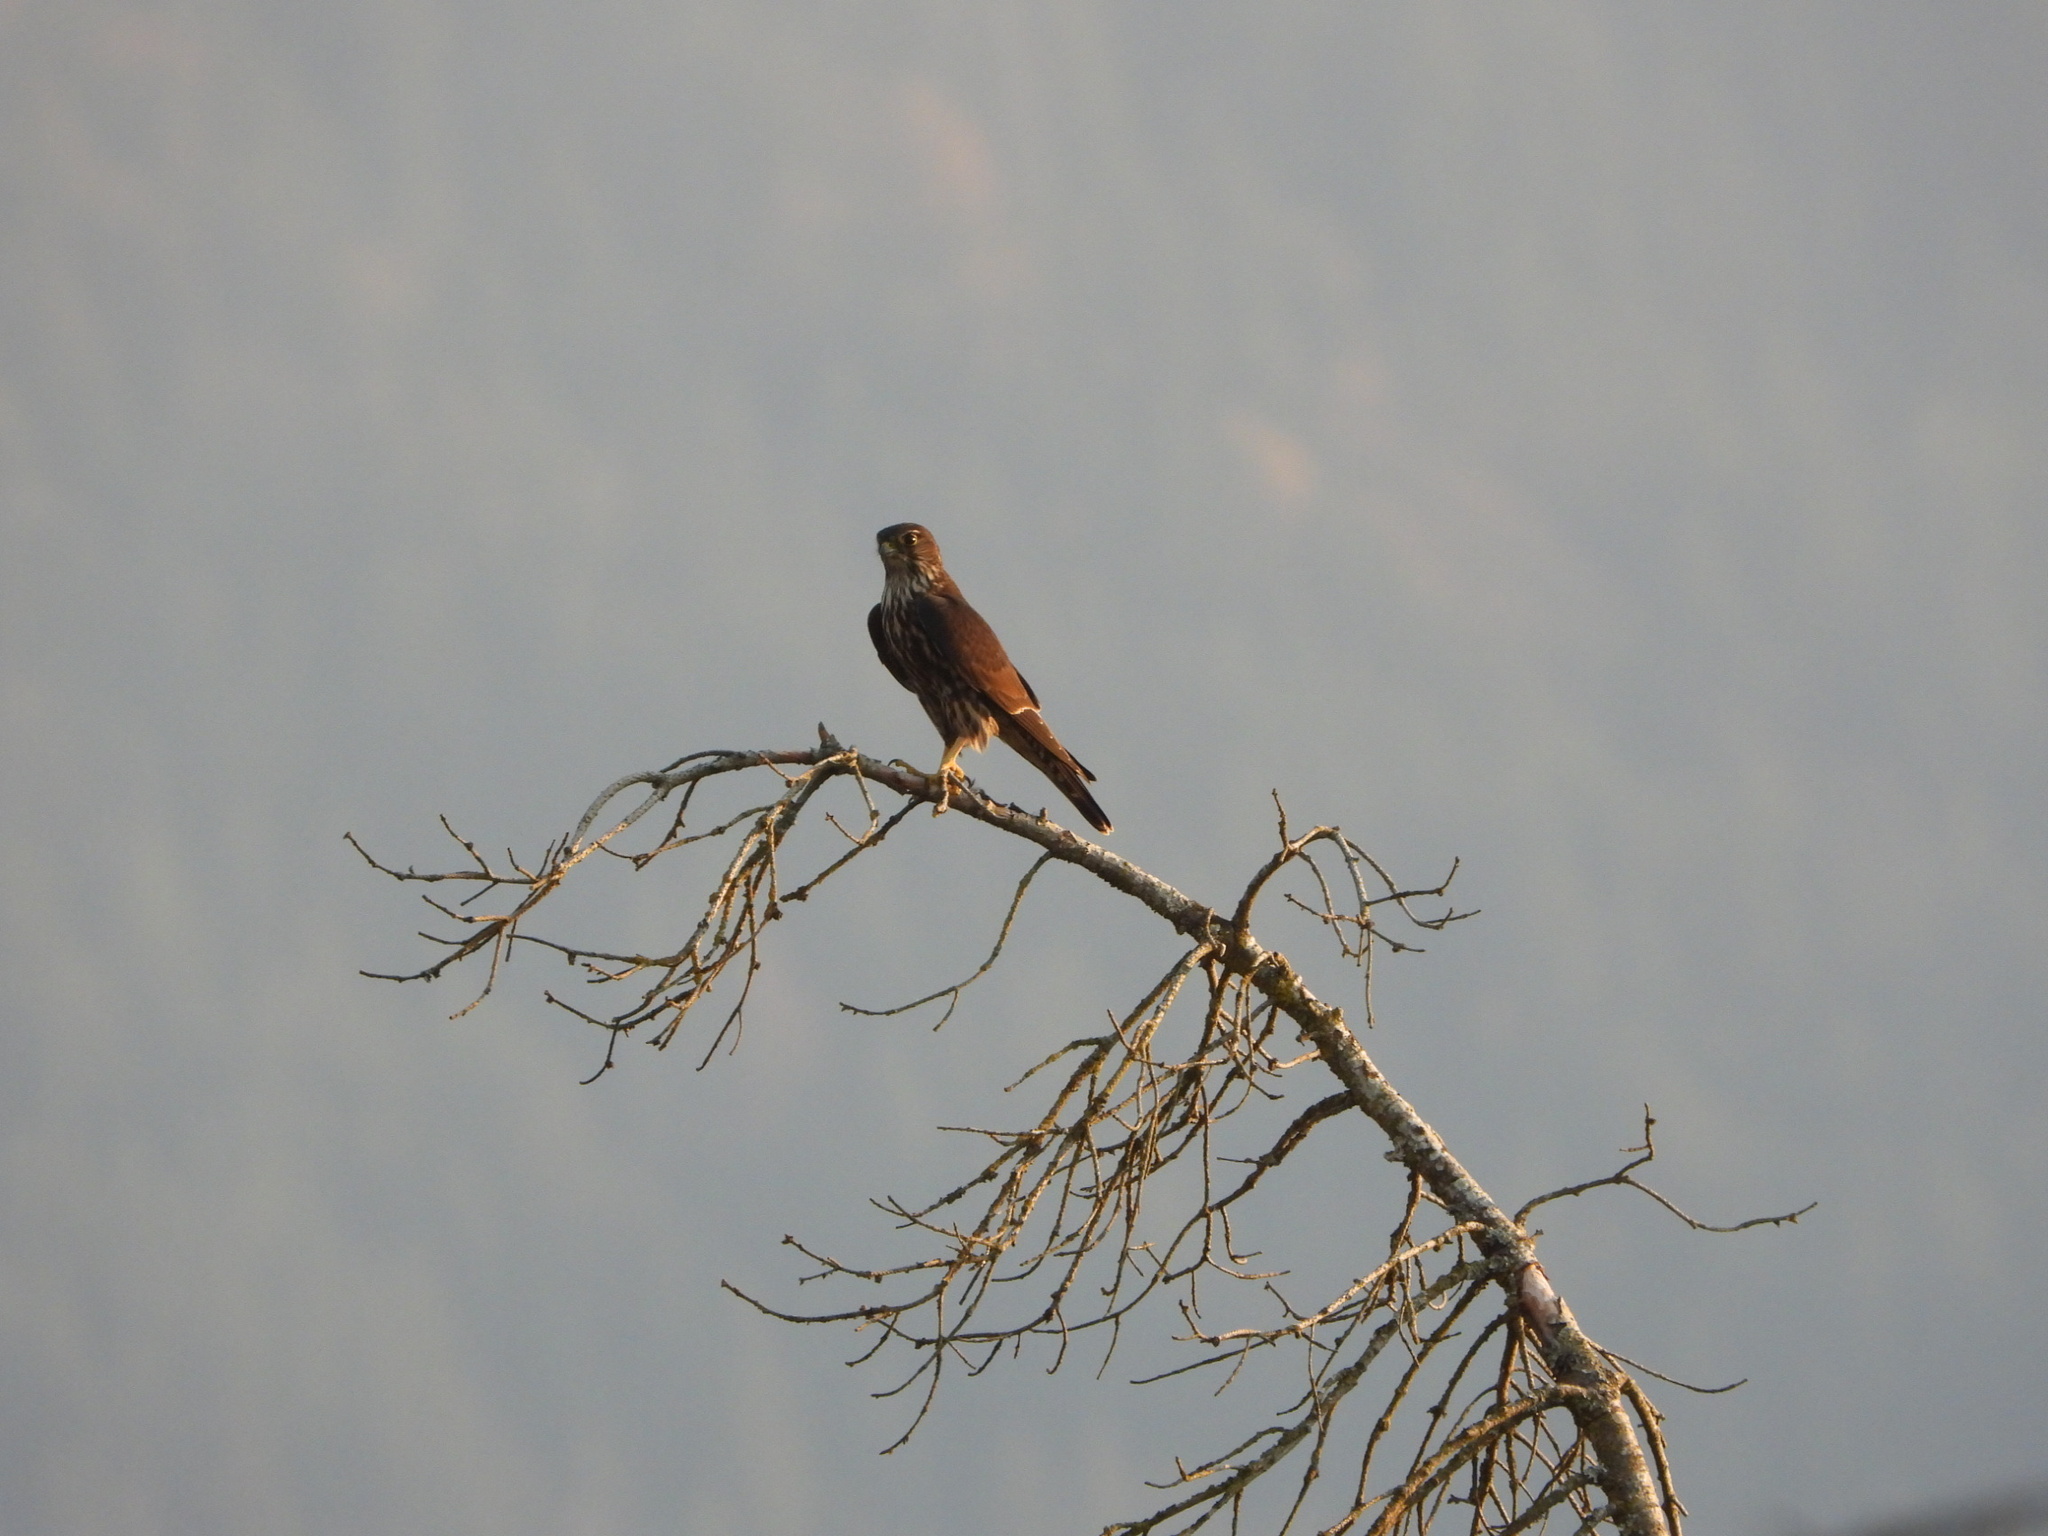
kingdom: Animalia
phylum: Chordata
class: Aves
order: Falconiformes
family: Falconidae
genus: Falco
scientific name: Falco columbarius
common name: Merlin
